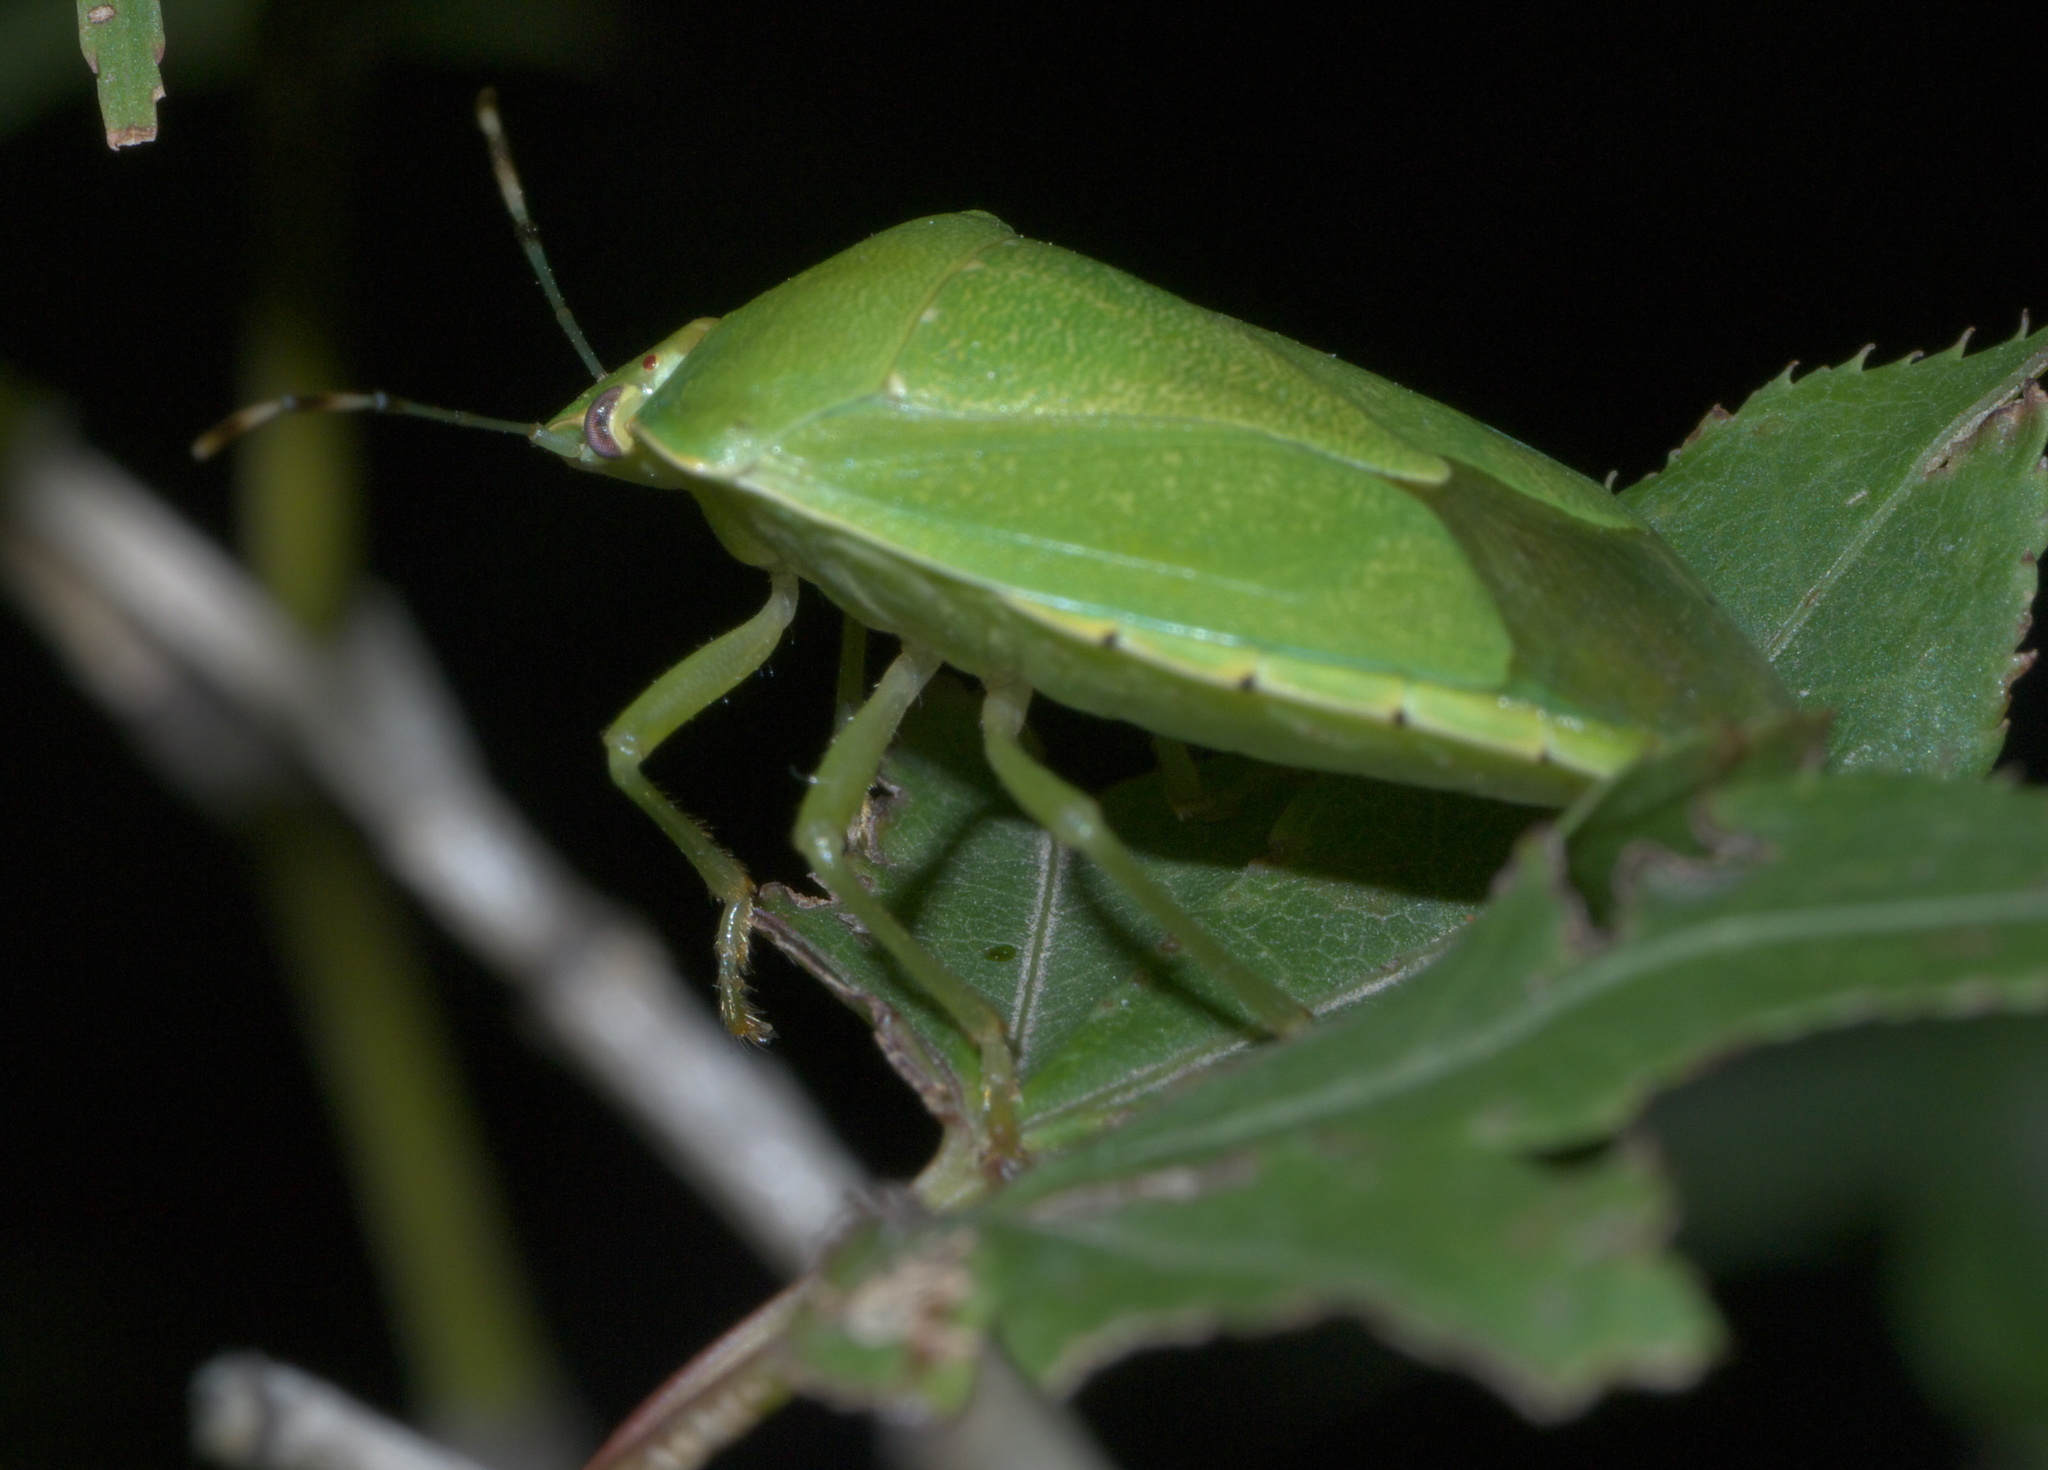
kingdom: Animalia
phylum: Arthropoda
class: Insecta
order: Hemiptera
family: Pentatomidae
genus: Chinavia
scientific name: Chinavia hilaris
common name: Green stink bug
